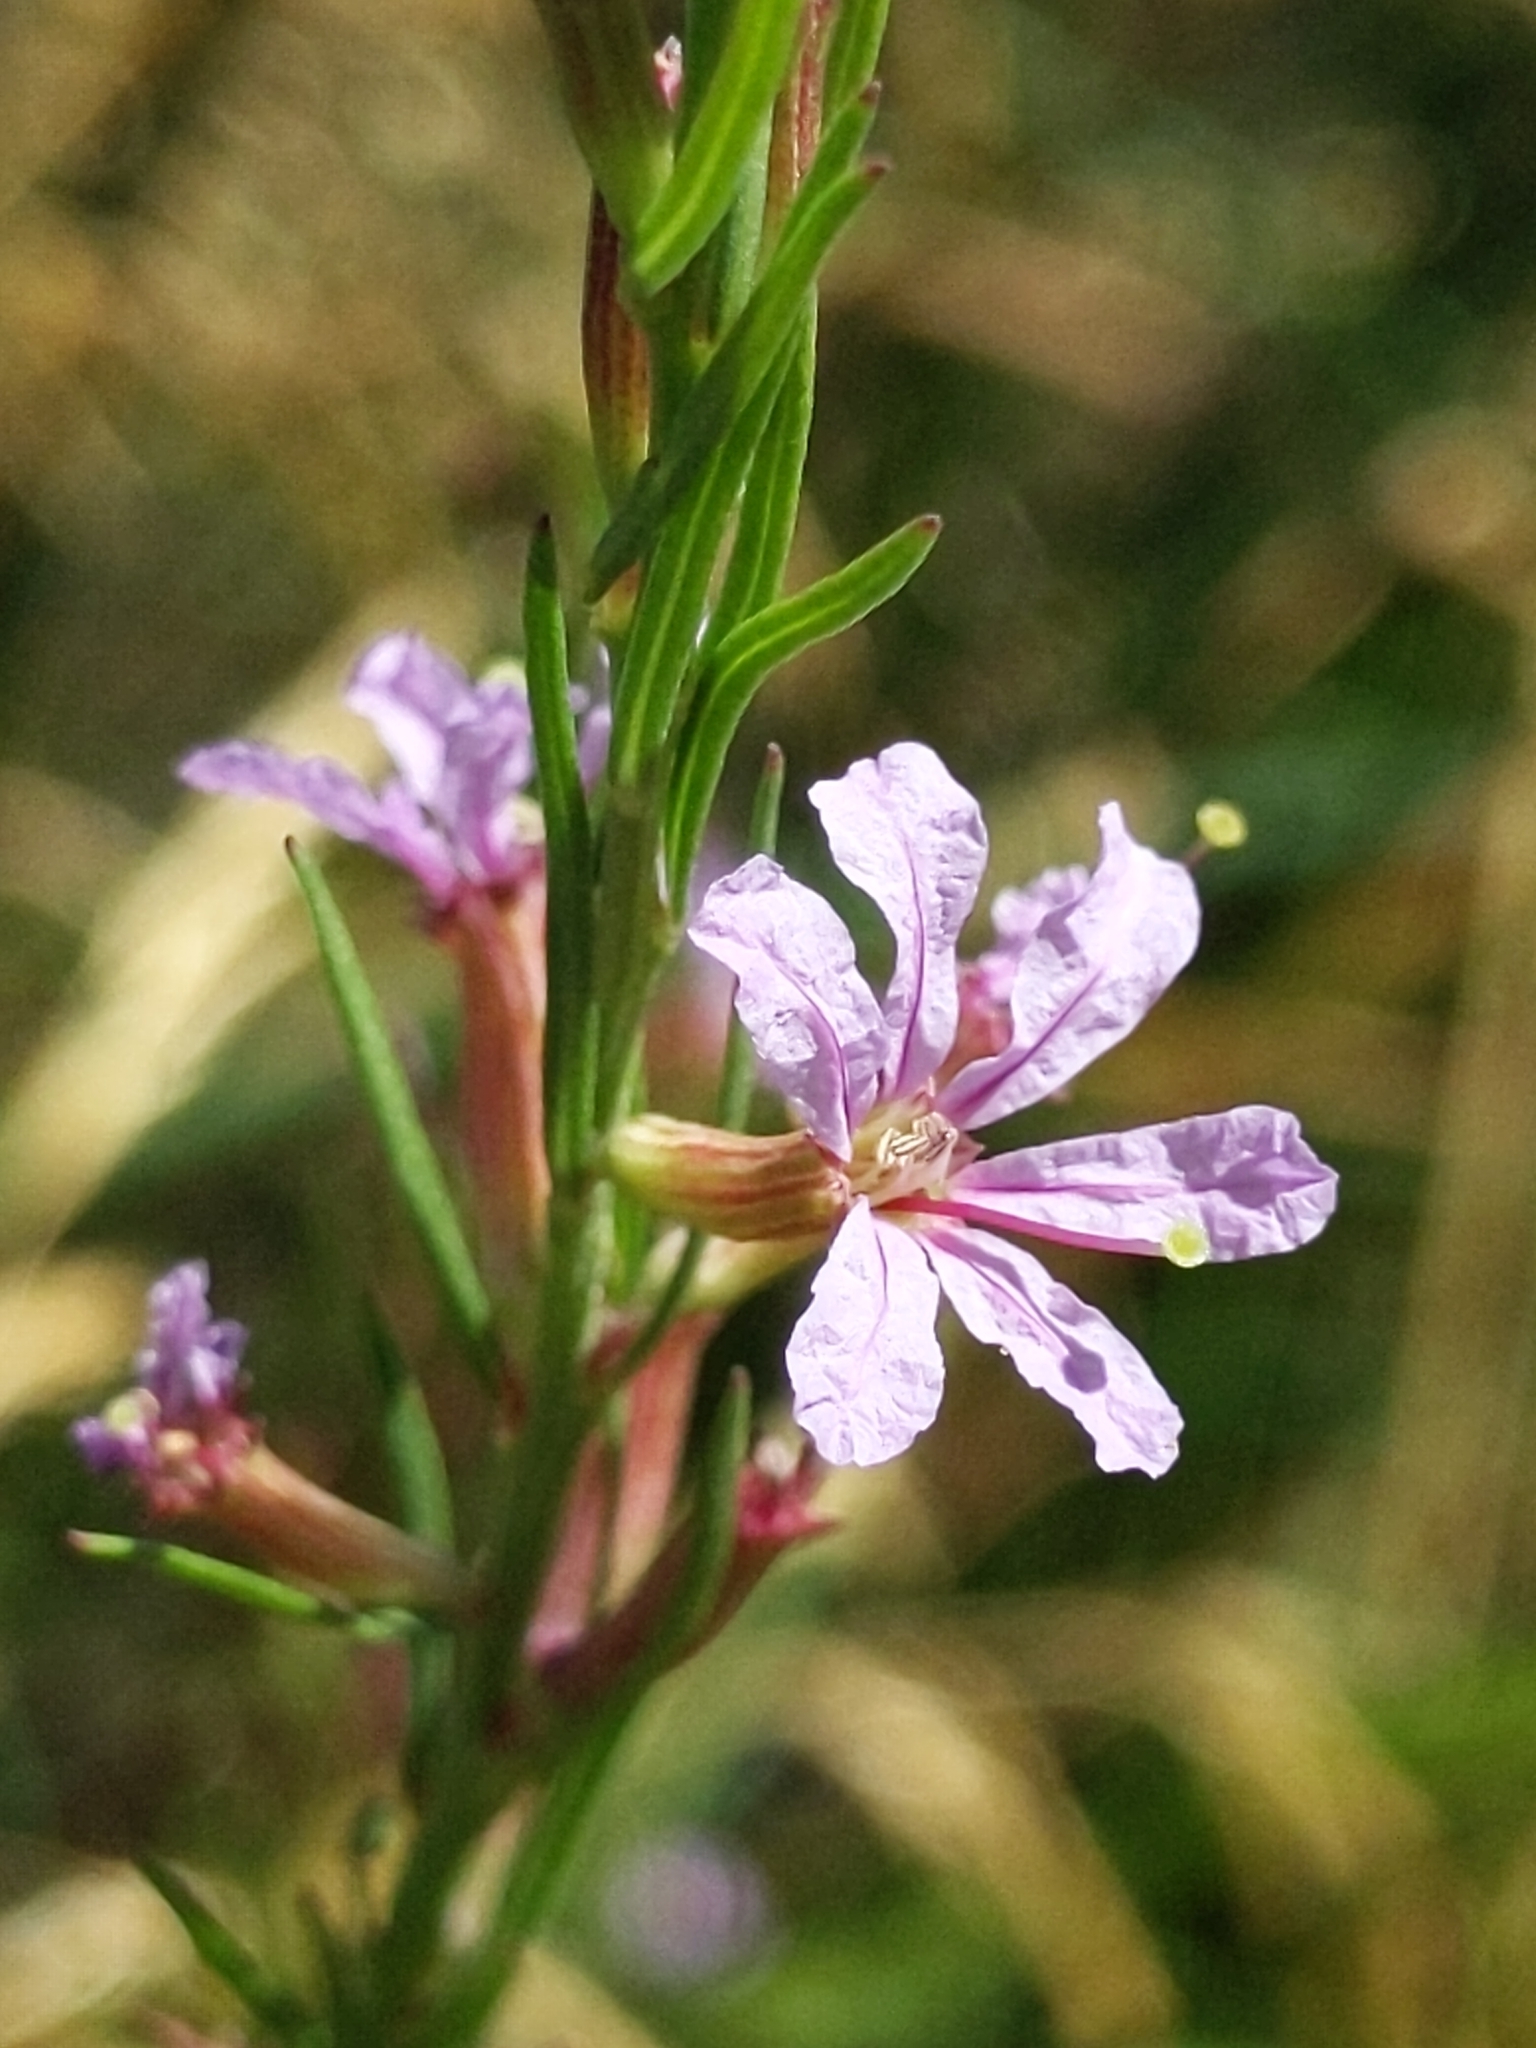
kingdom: Plantae
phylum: Tracheophyta
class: Magnoliopsida
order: Myrtales
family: Lythraceae
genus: Lythrum
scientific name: Lythrum californicum
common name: California loosestrife
